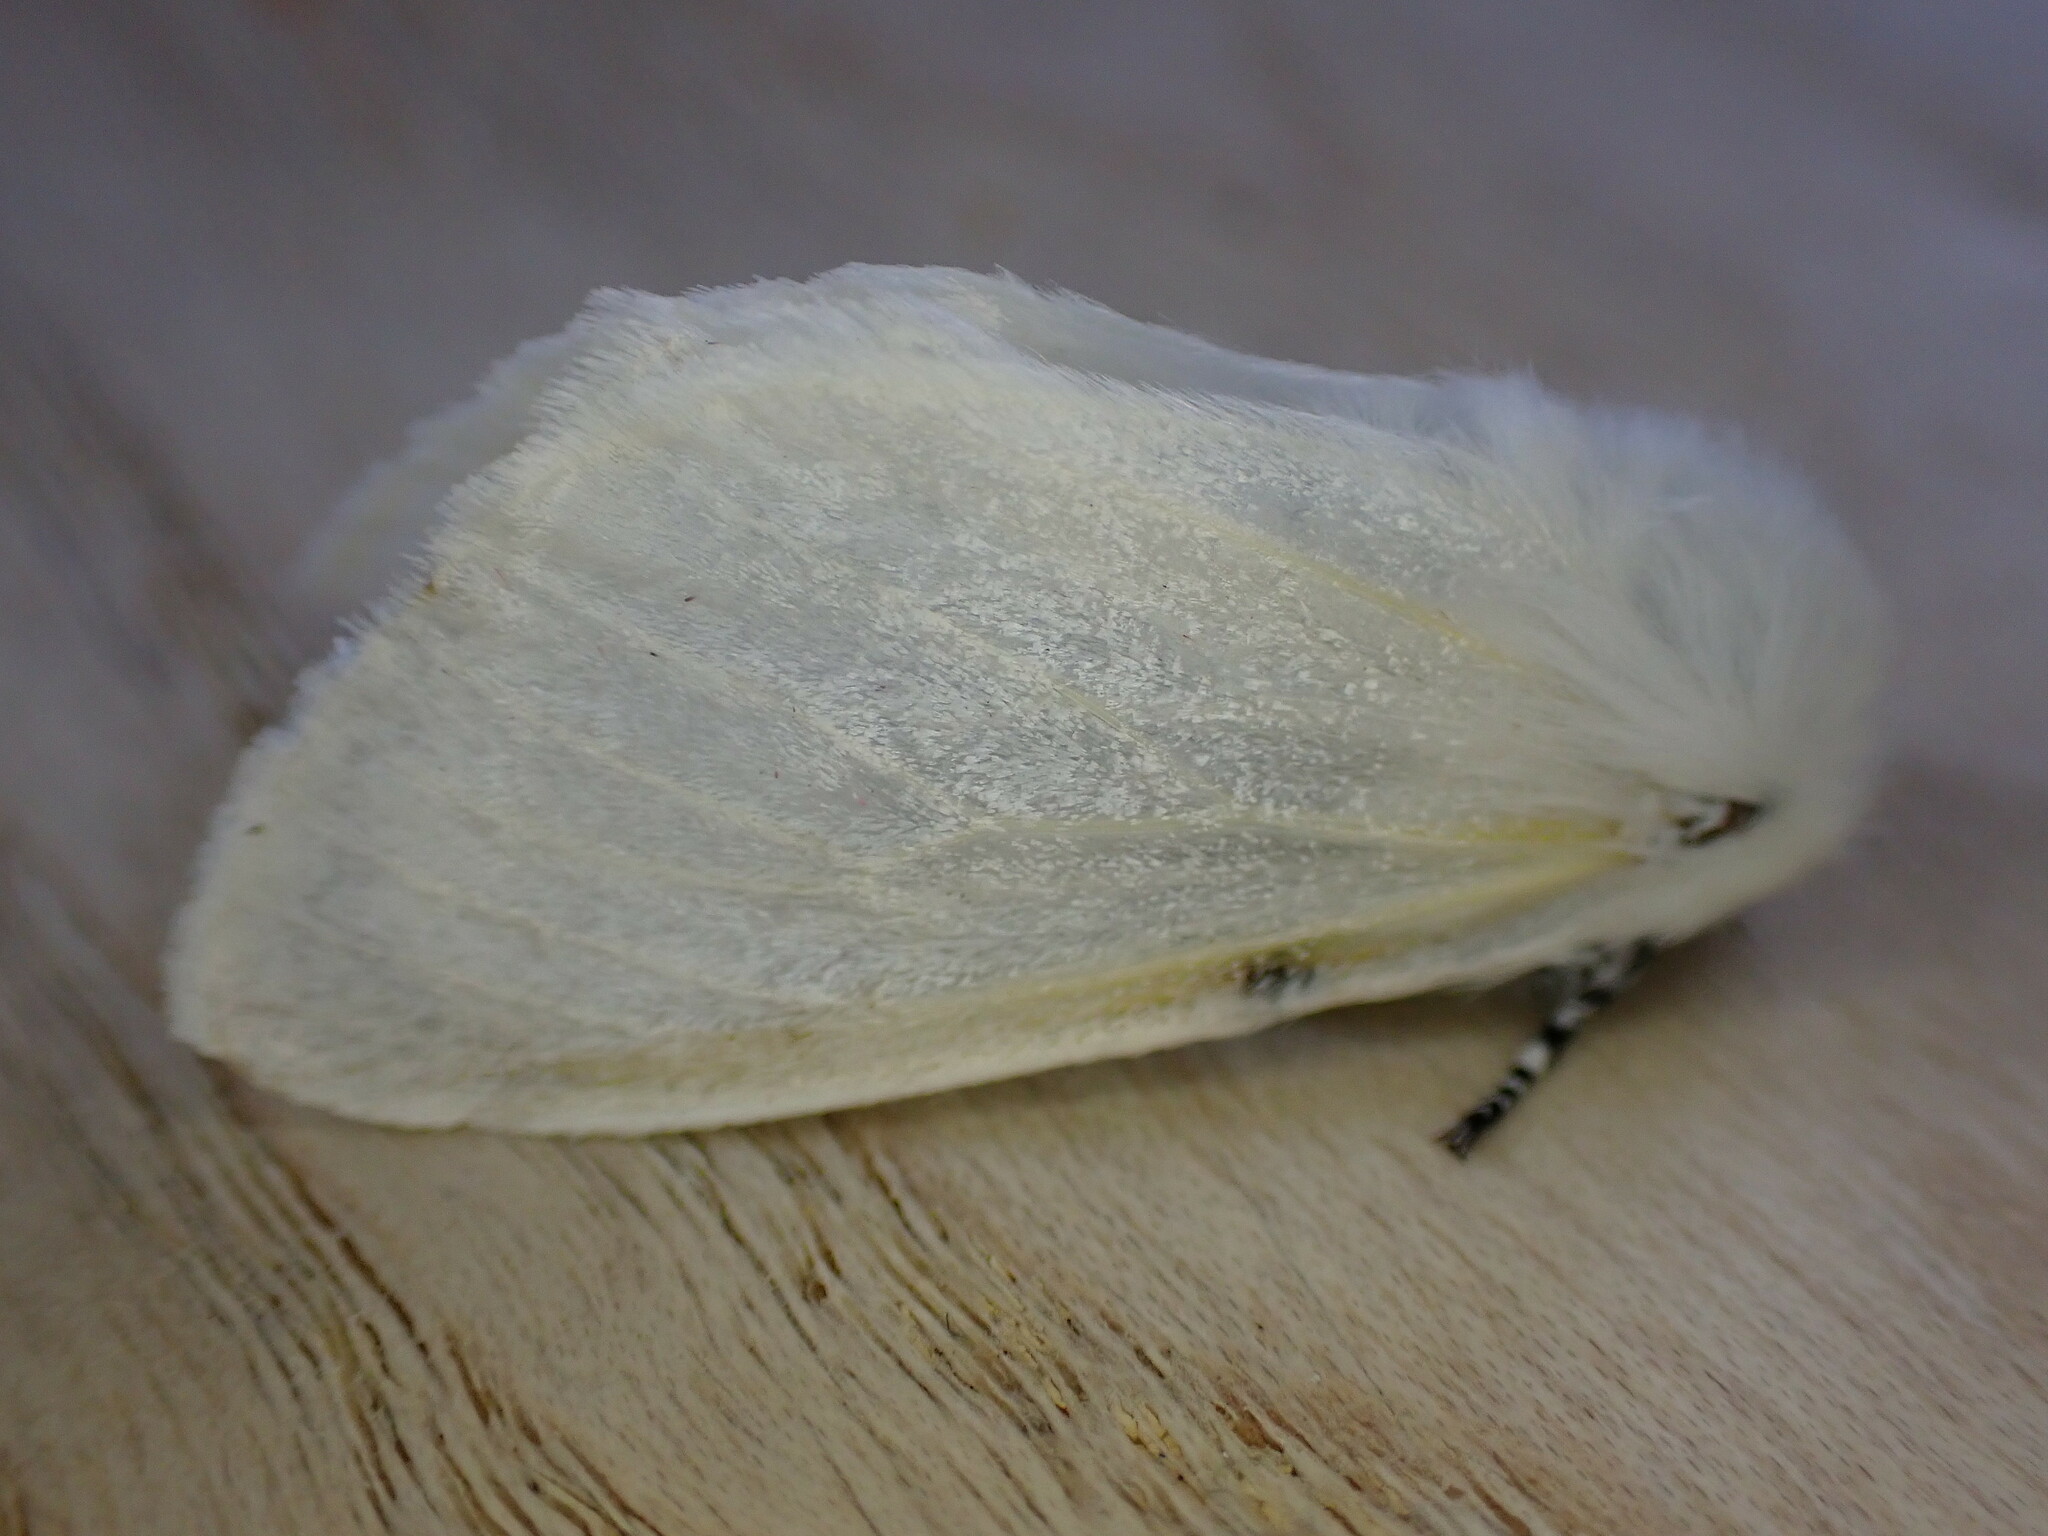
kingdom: Animalia
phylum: Arthropoda
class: Insecta
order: Lepidoptera
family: Erebidae
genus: Leucoma
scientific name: Leucoma salicis
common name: White satin moth
